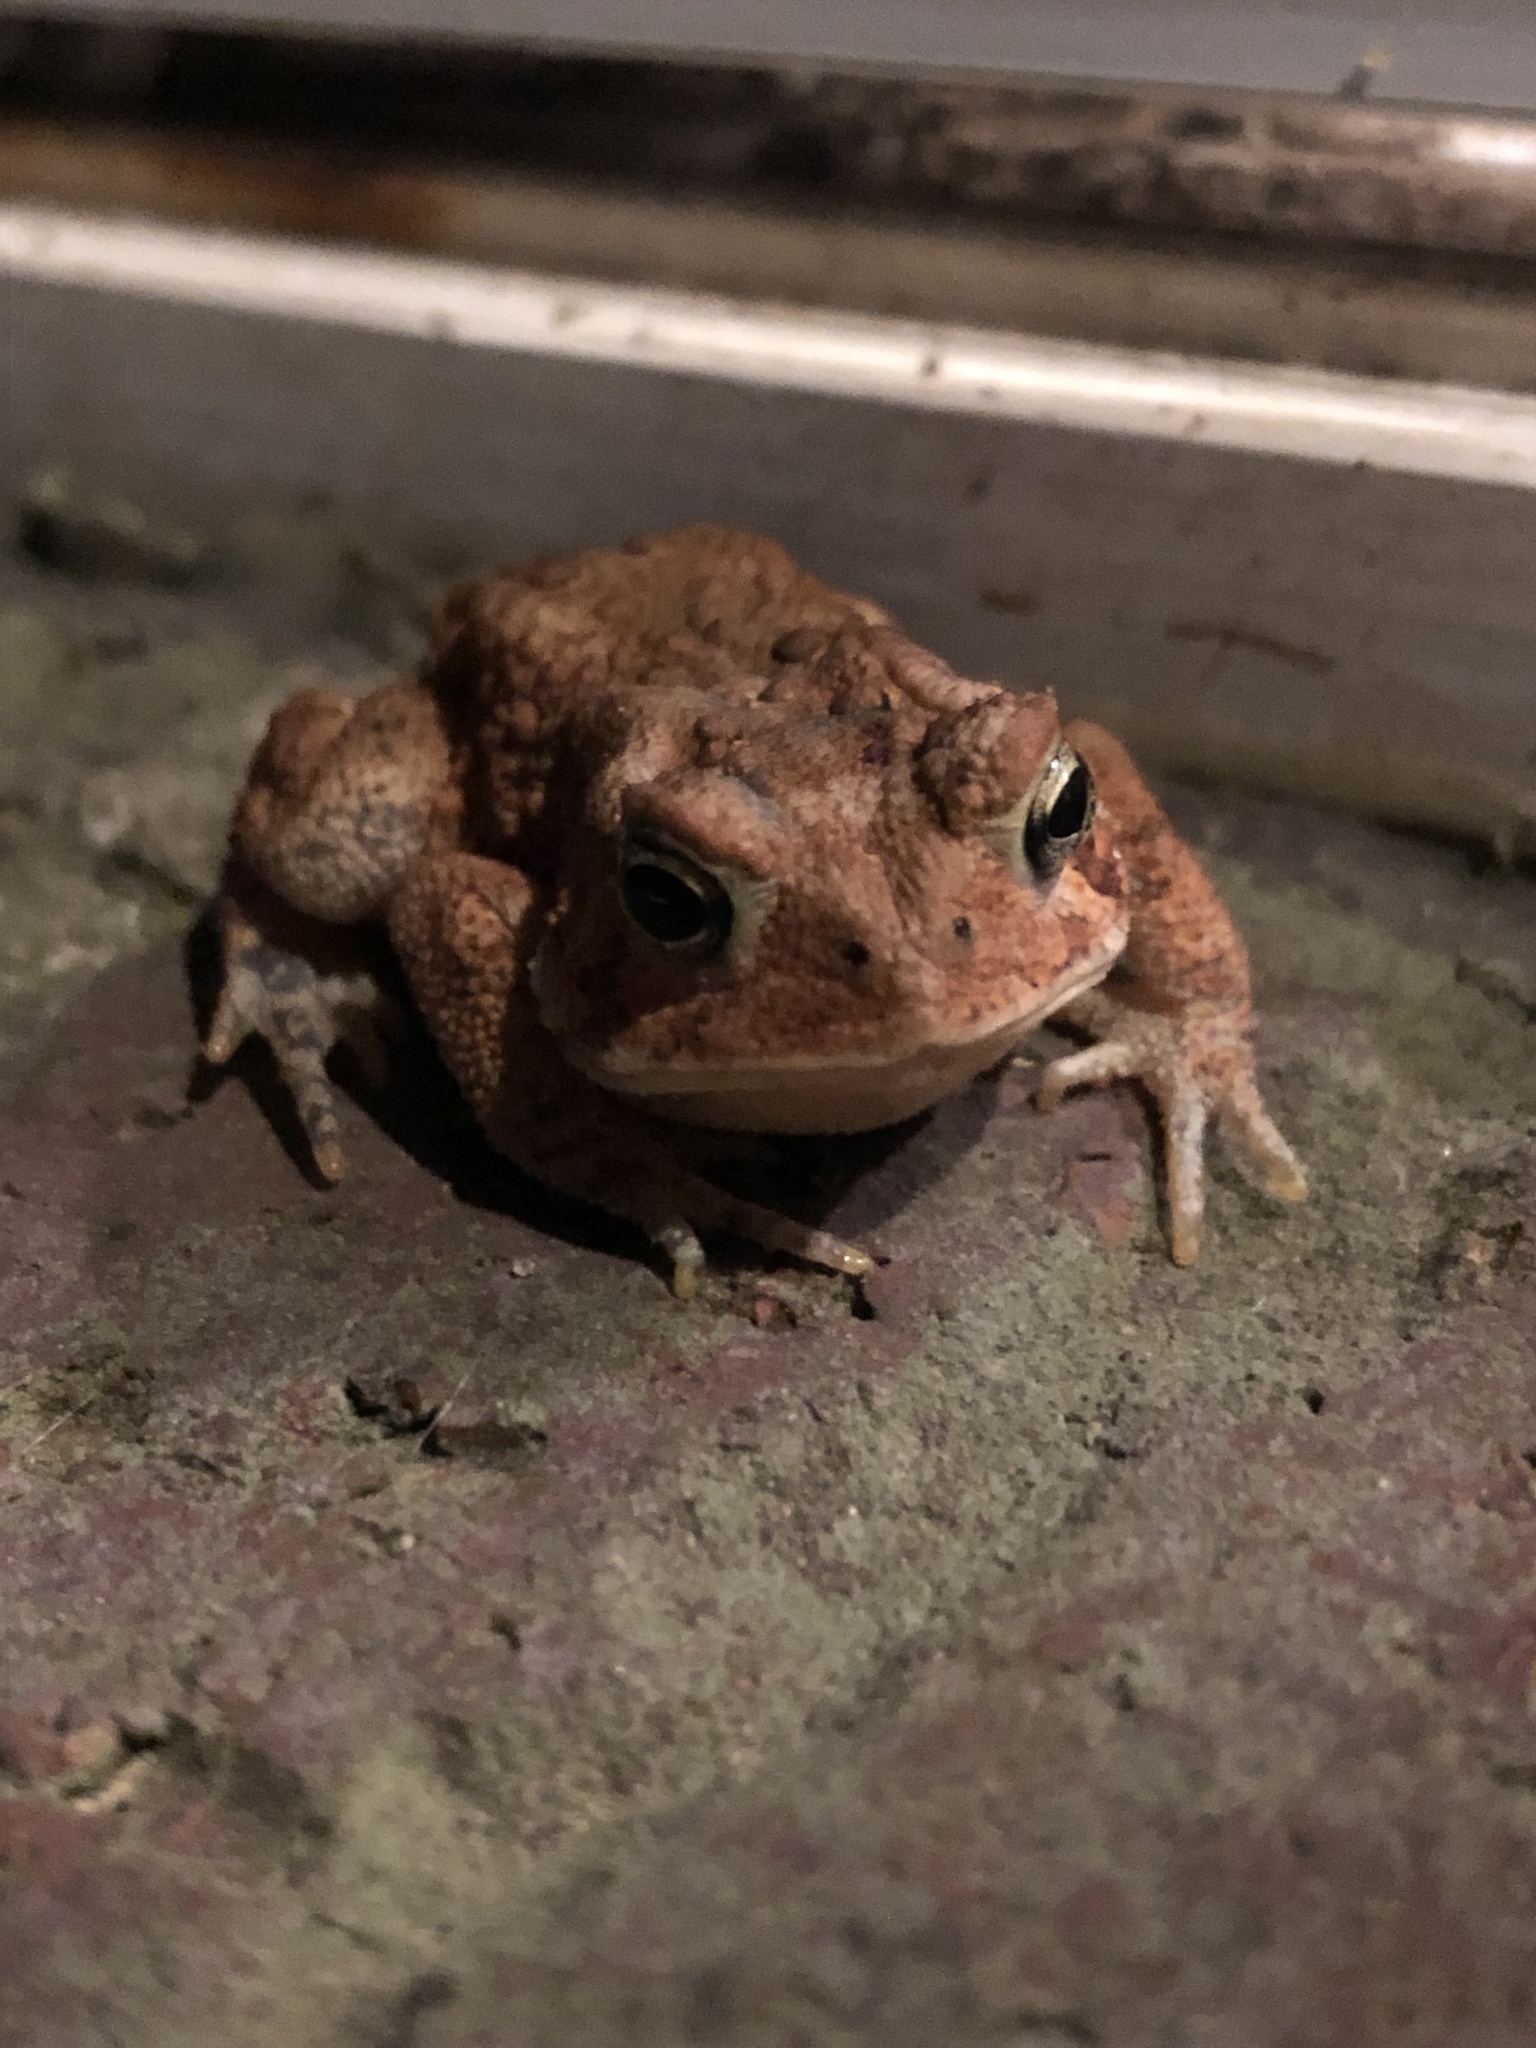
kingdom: Animalia
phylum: Chordata
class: Amphibia
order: Anura
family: Bufonidae
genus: Anaxyrus
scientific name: Anaxyrus americanus
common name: American toad
